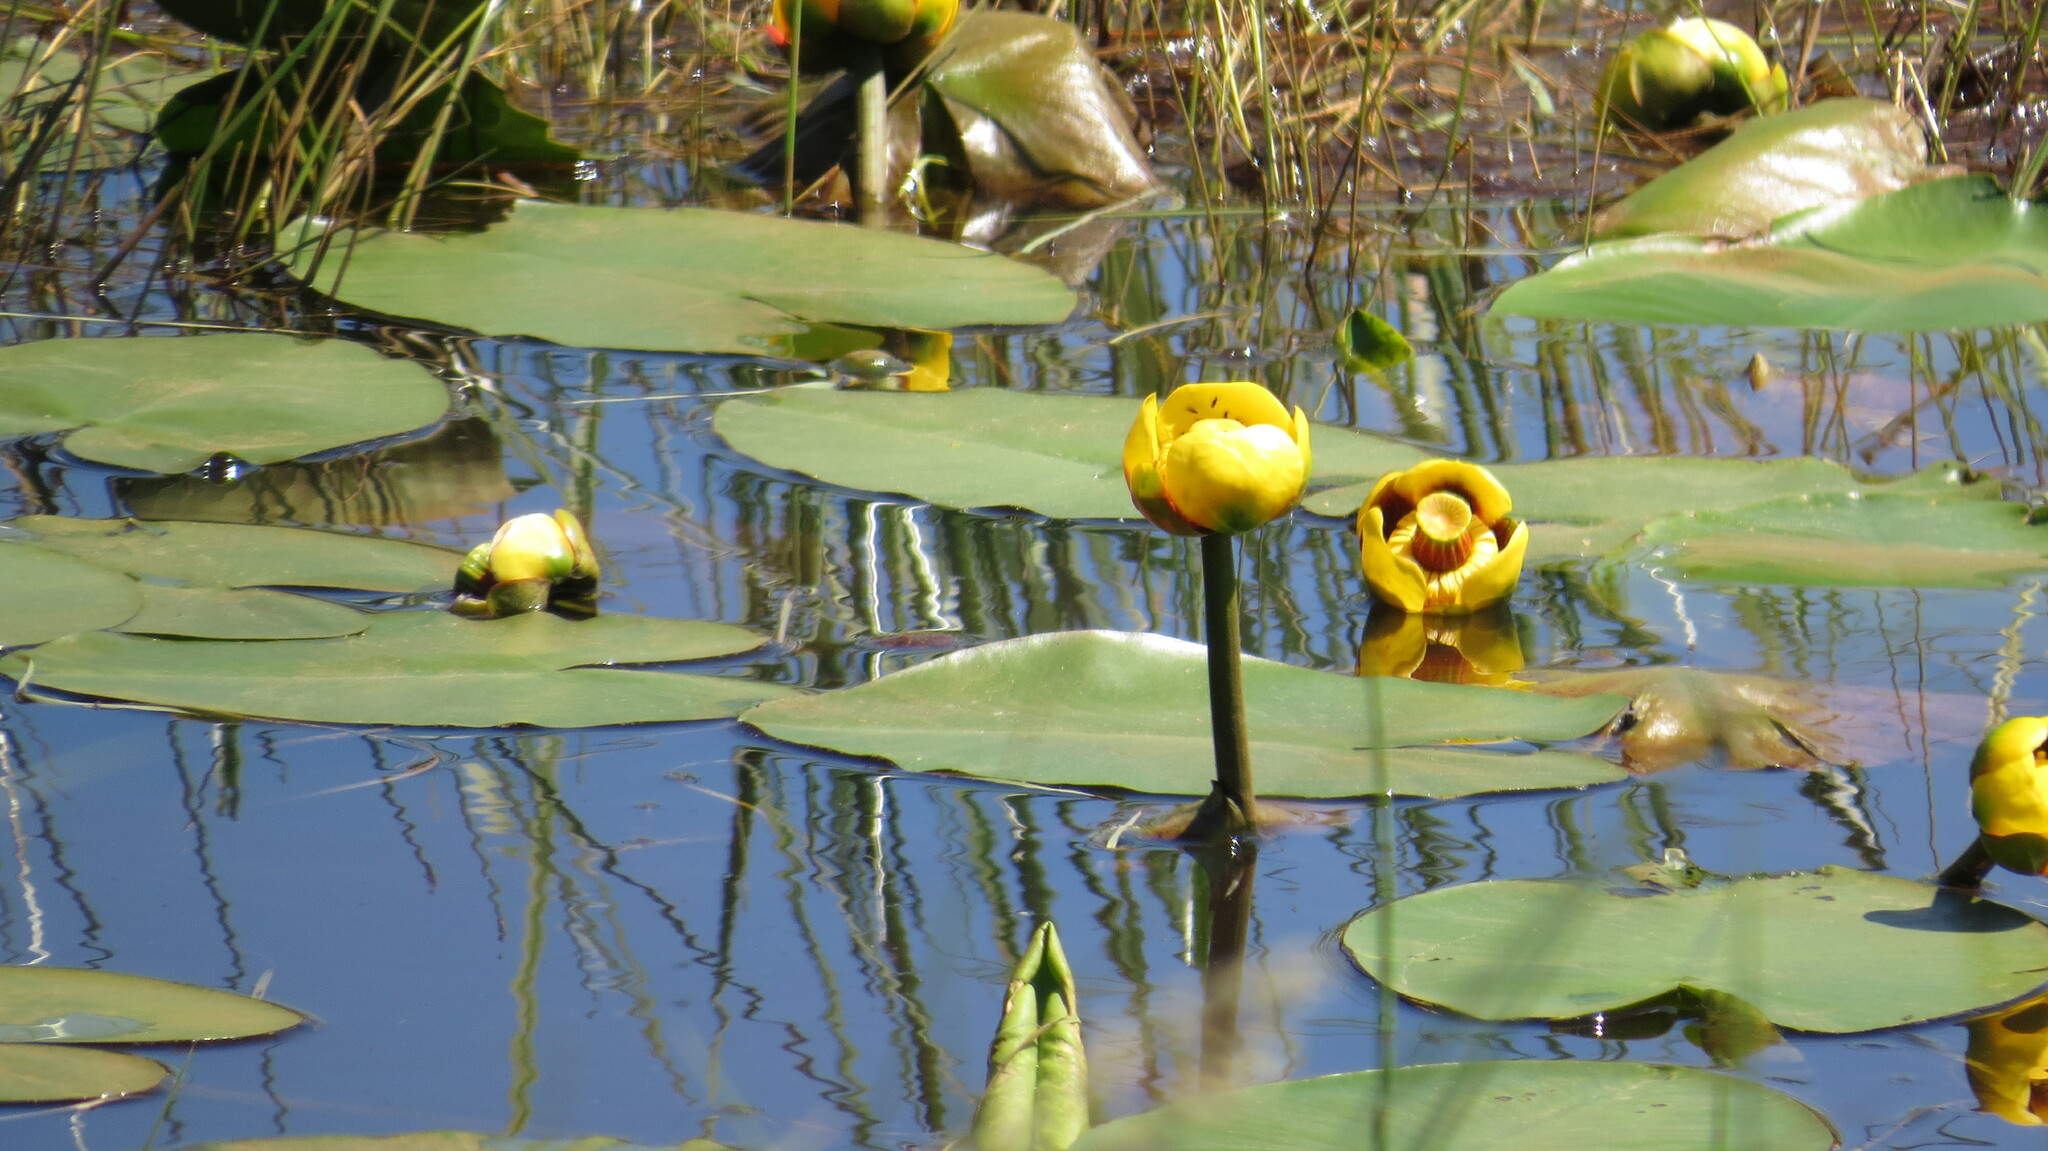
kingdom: Plantae
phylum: Tracheophyta
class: Magnoliopsida
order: Nymphaeales
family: Nymphaeaceae
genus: Nuphar
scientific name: Nuphar variegata
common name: Beaver-root
